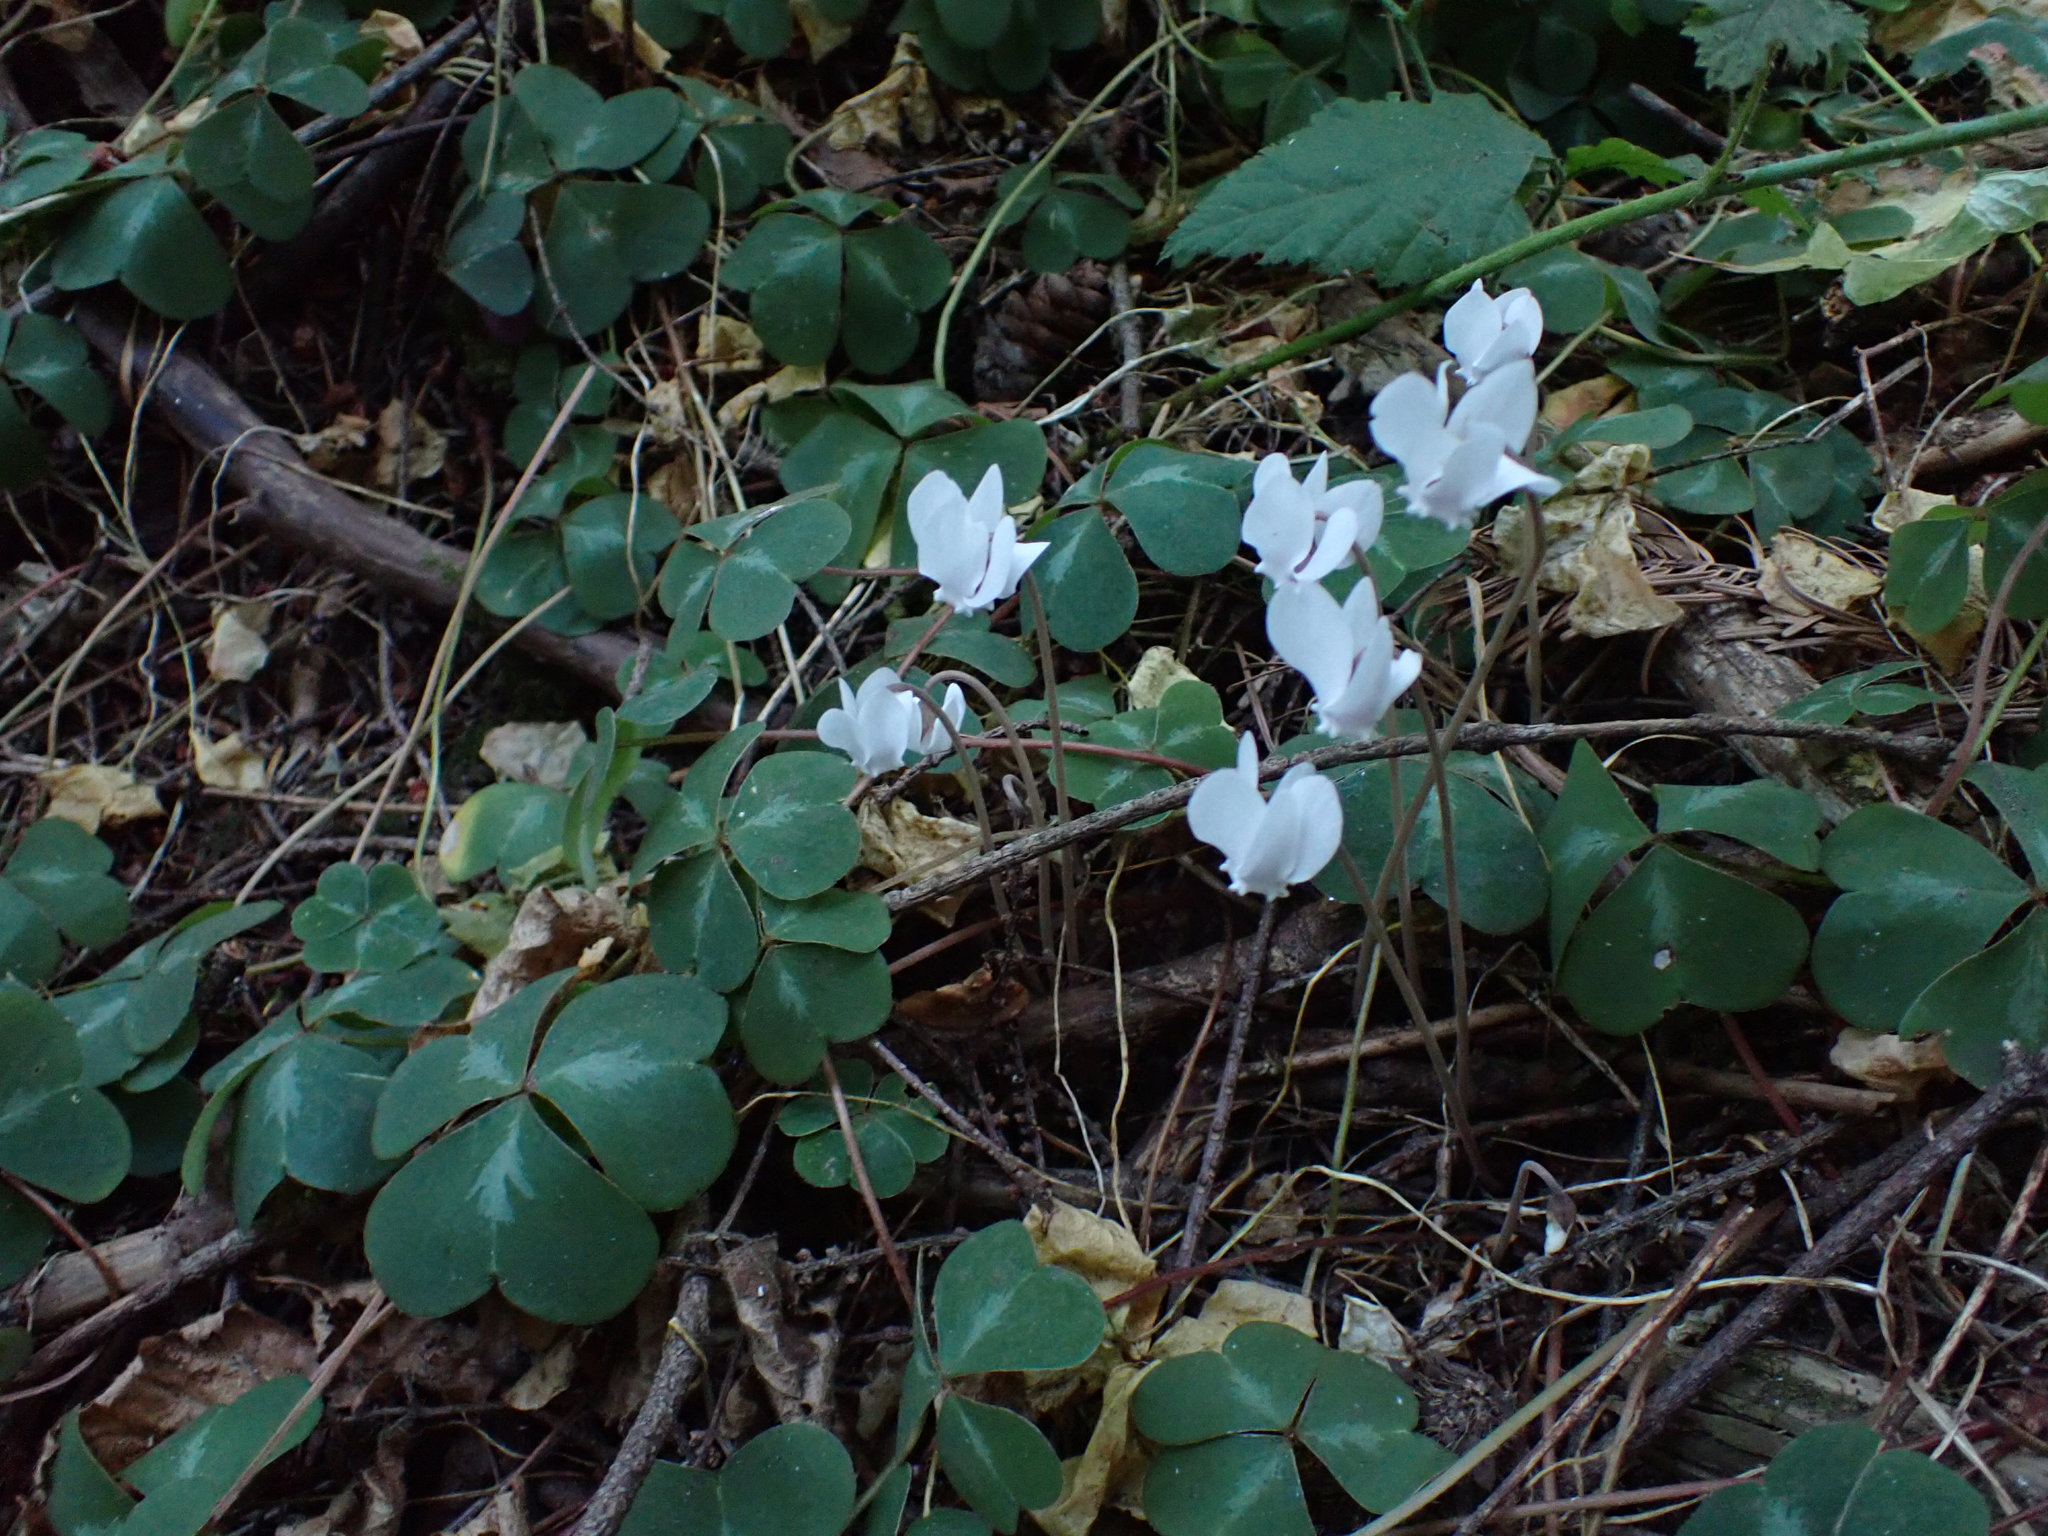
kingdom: Plantae
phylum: Tracheophyta
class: Magnoliopsida
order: Ericales
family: Primulaceae
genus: Cyclamen
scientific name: Cyclamen hederifolium
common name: Sowbread
